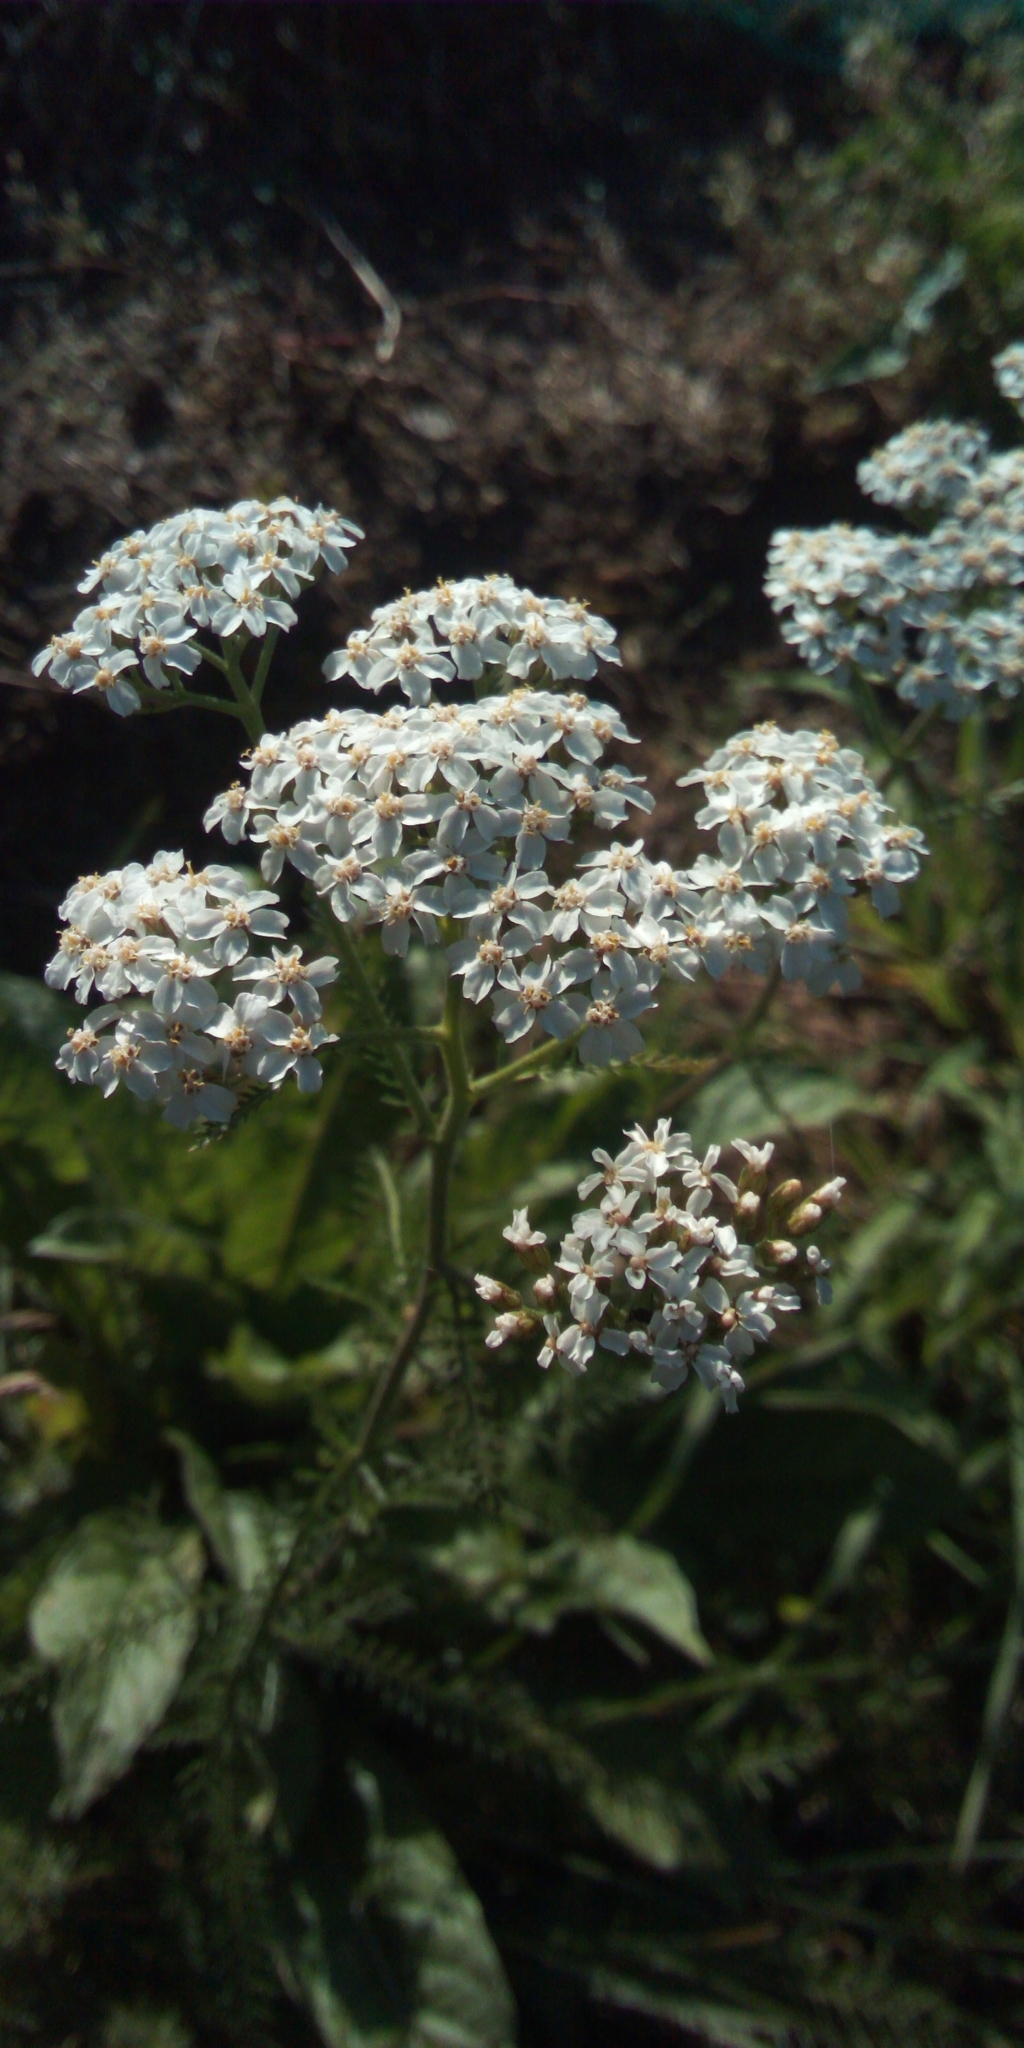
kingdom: Plantae
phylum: Tracheophyta
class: Magnoliopsida
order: Asterales
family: Asteraceae
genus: Achillea
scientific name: Achillea millefolium
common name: Yarrow
